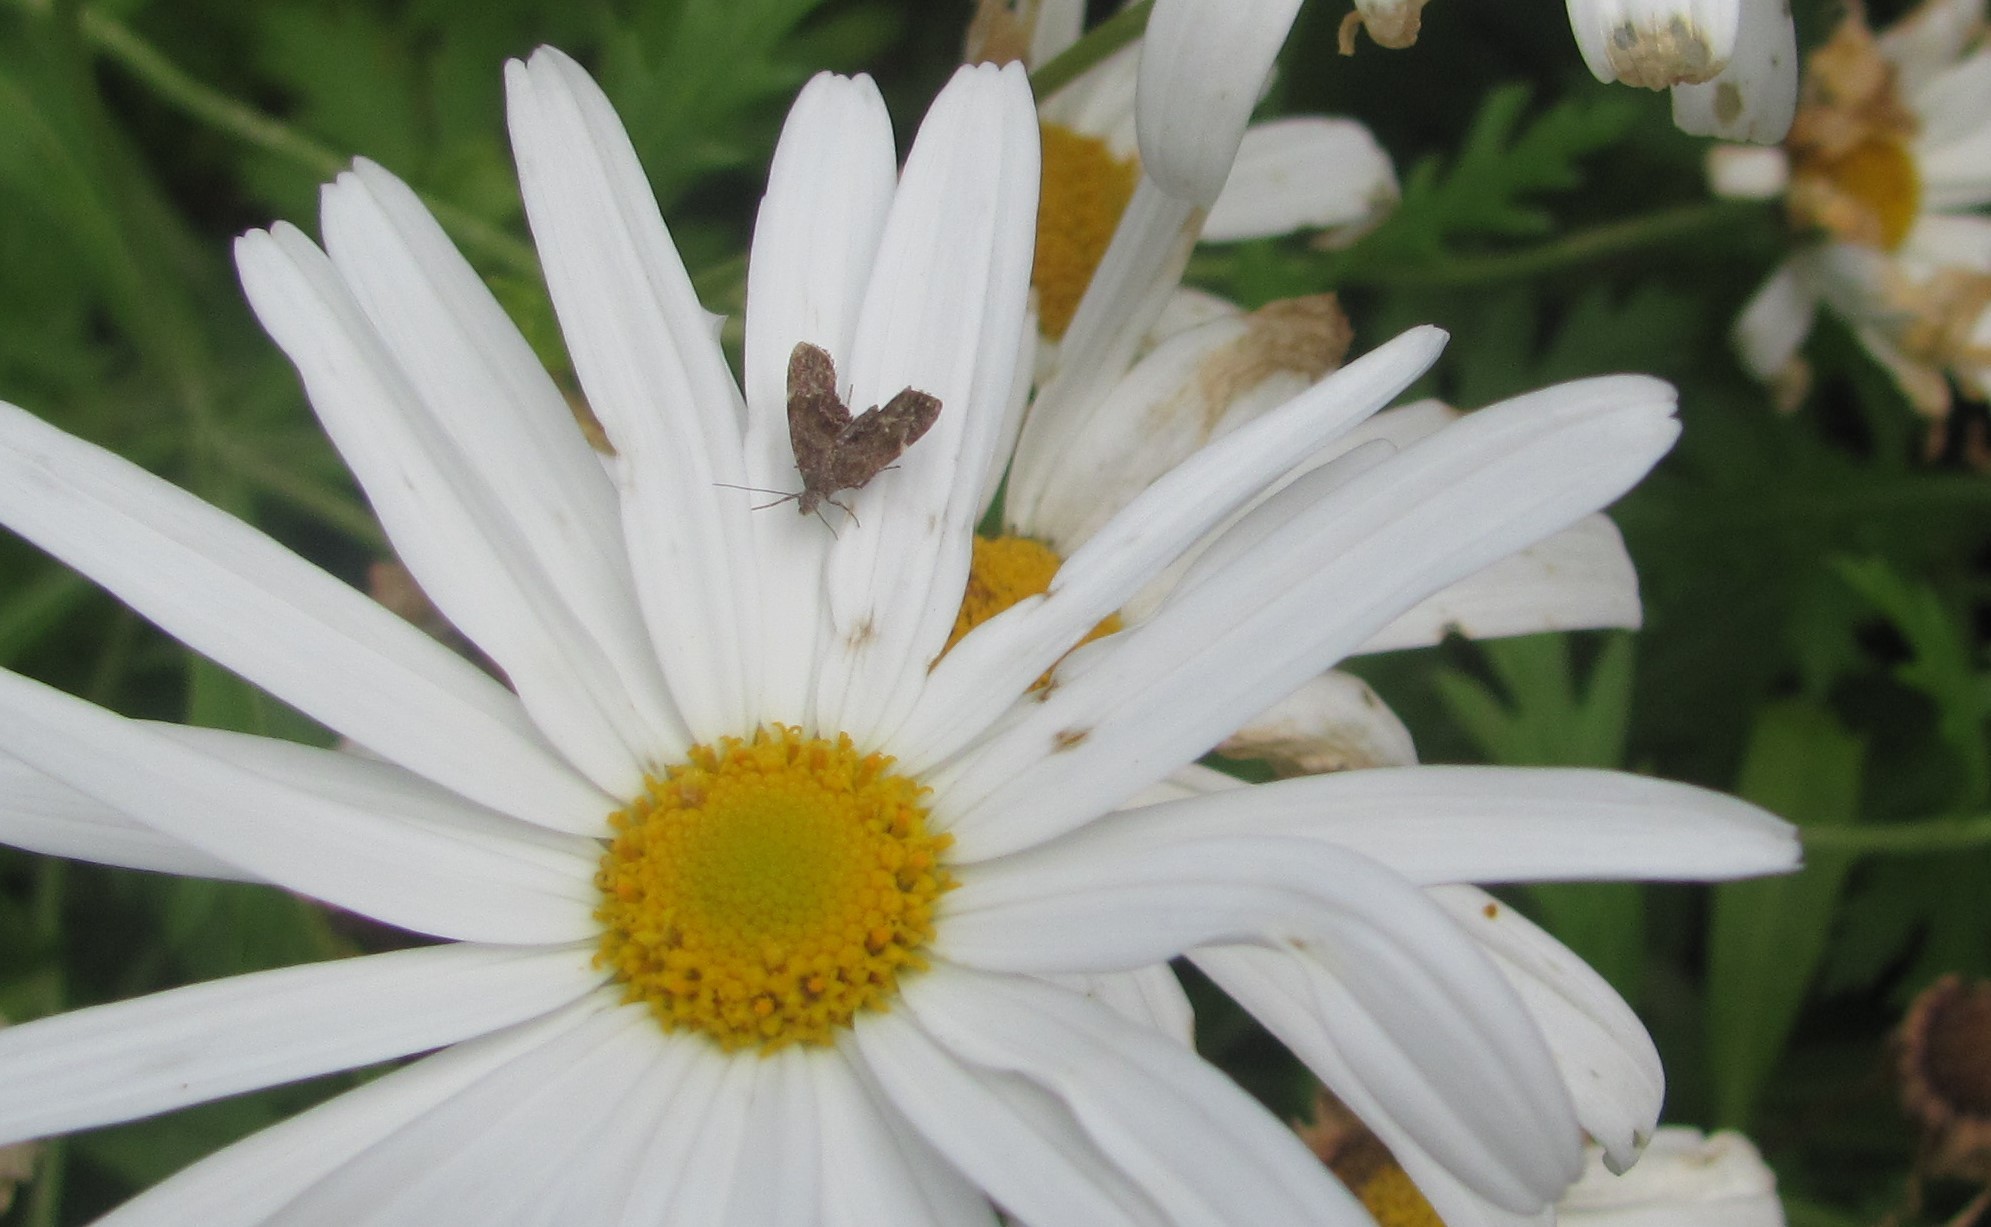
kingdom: Animalia
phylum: Arthropoda
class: Insecta
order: Lepidoptera
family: Choreutidae
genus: Asterivora
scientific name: Asterivora combinatana
